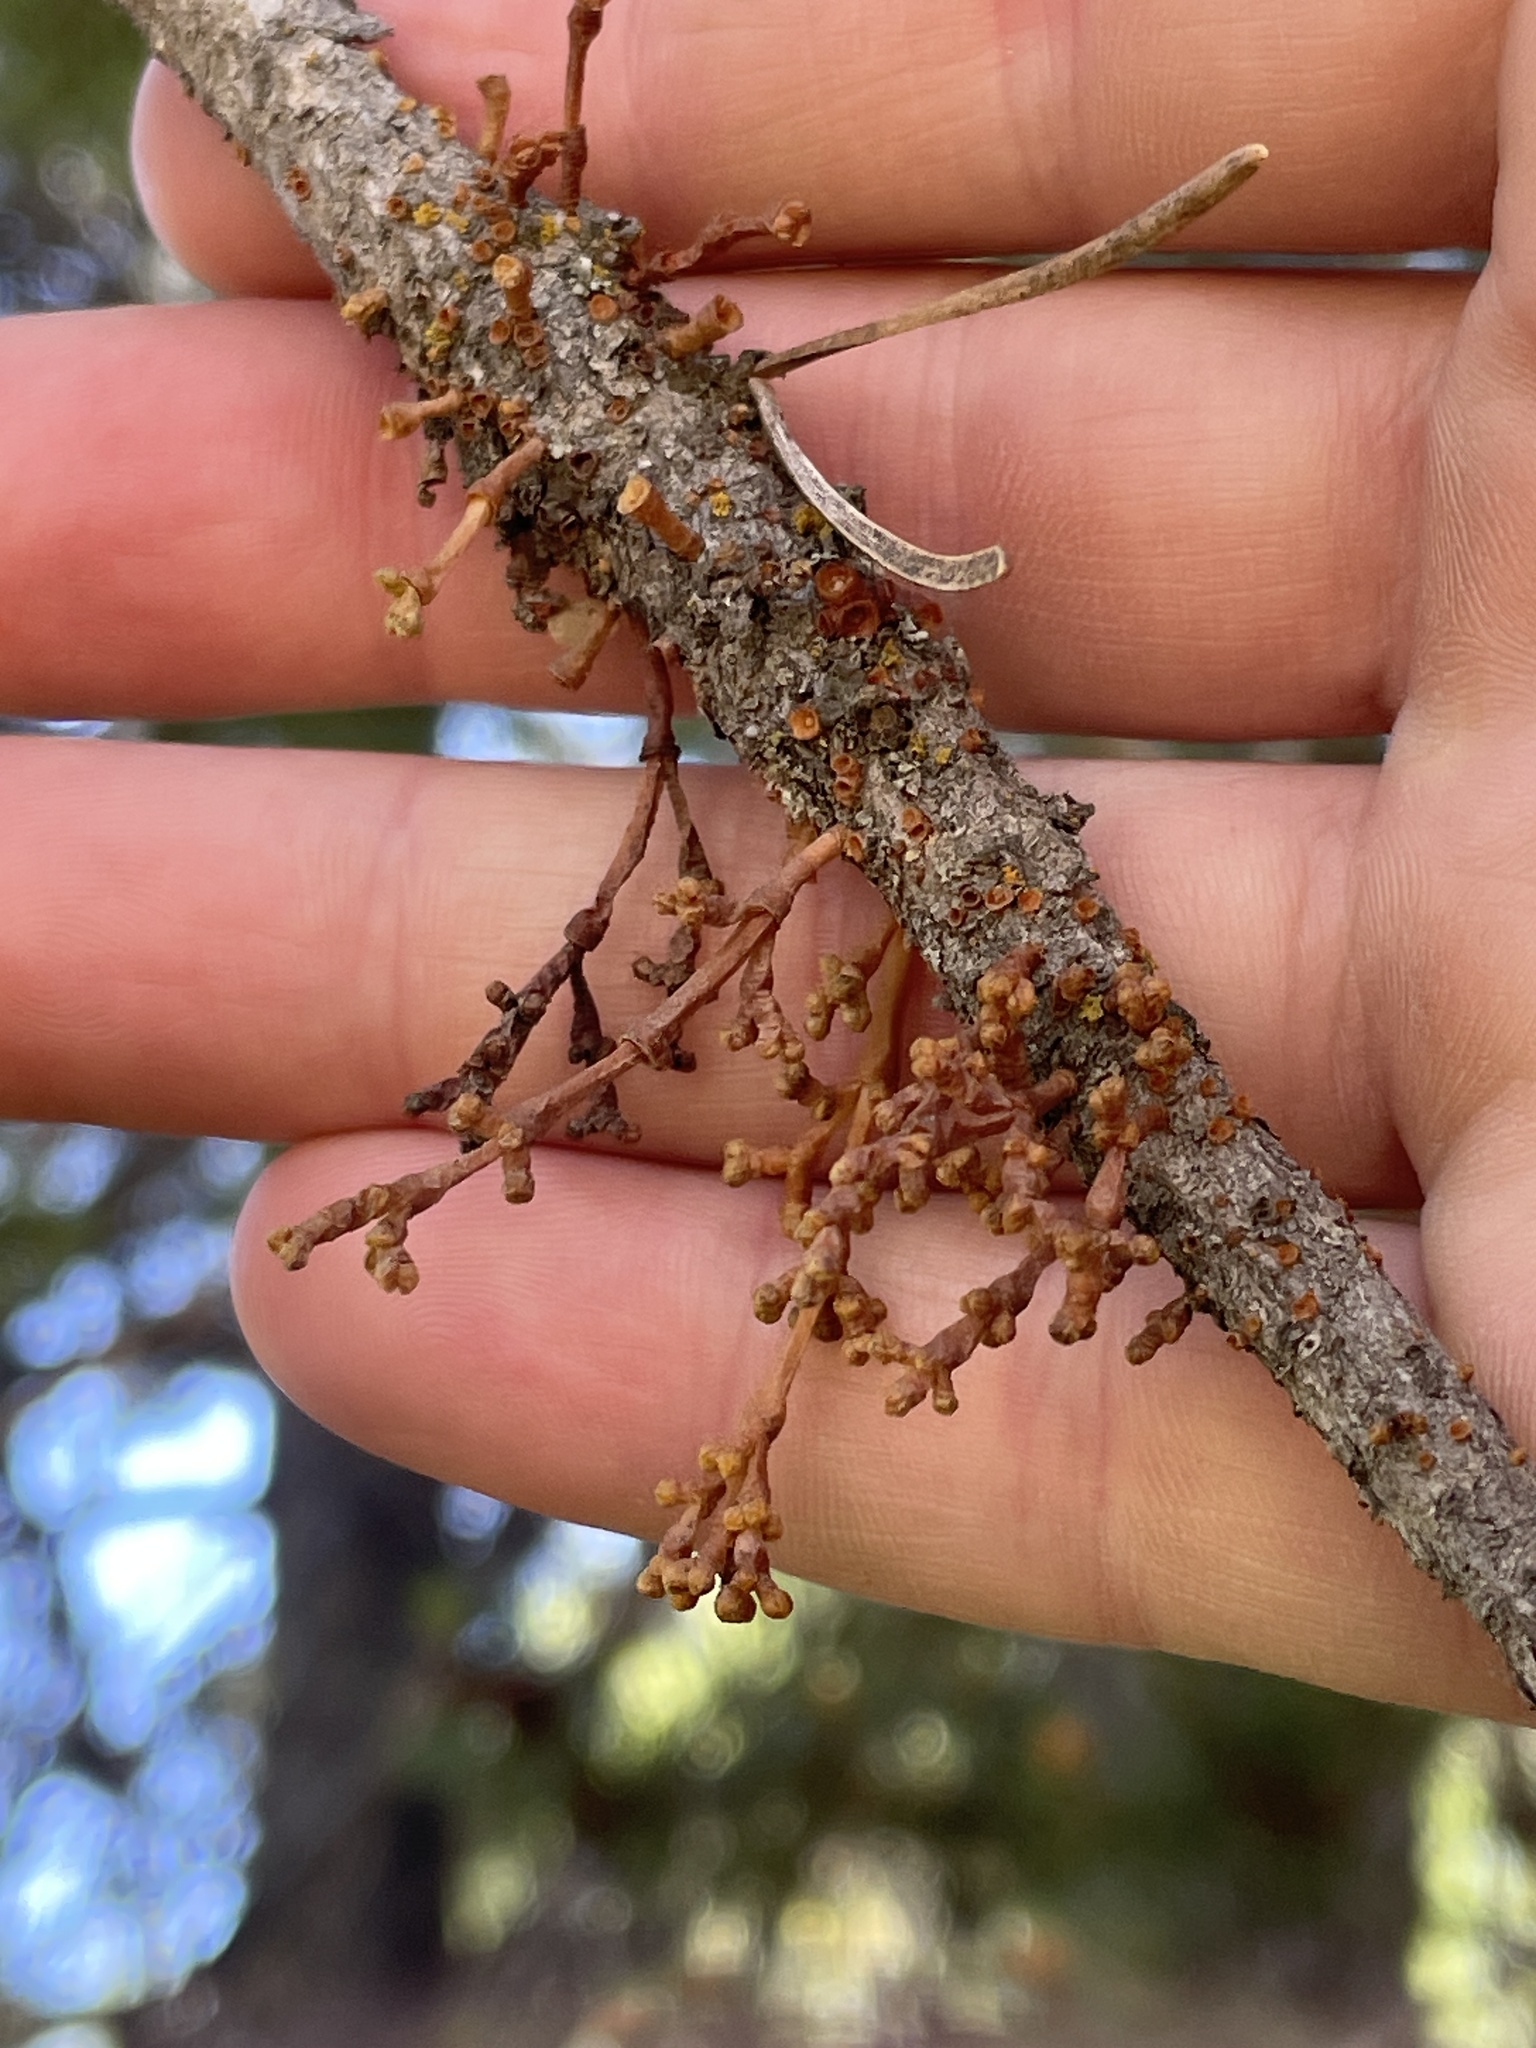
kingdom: Plantae
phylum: Tracheophyta
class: Magnoliopsida
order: Santalales
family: Viscaceae
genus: Arceuthobium
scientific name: Arceuthobium americanum
